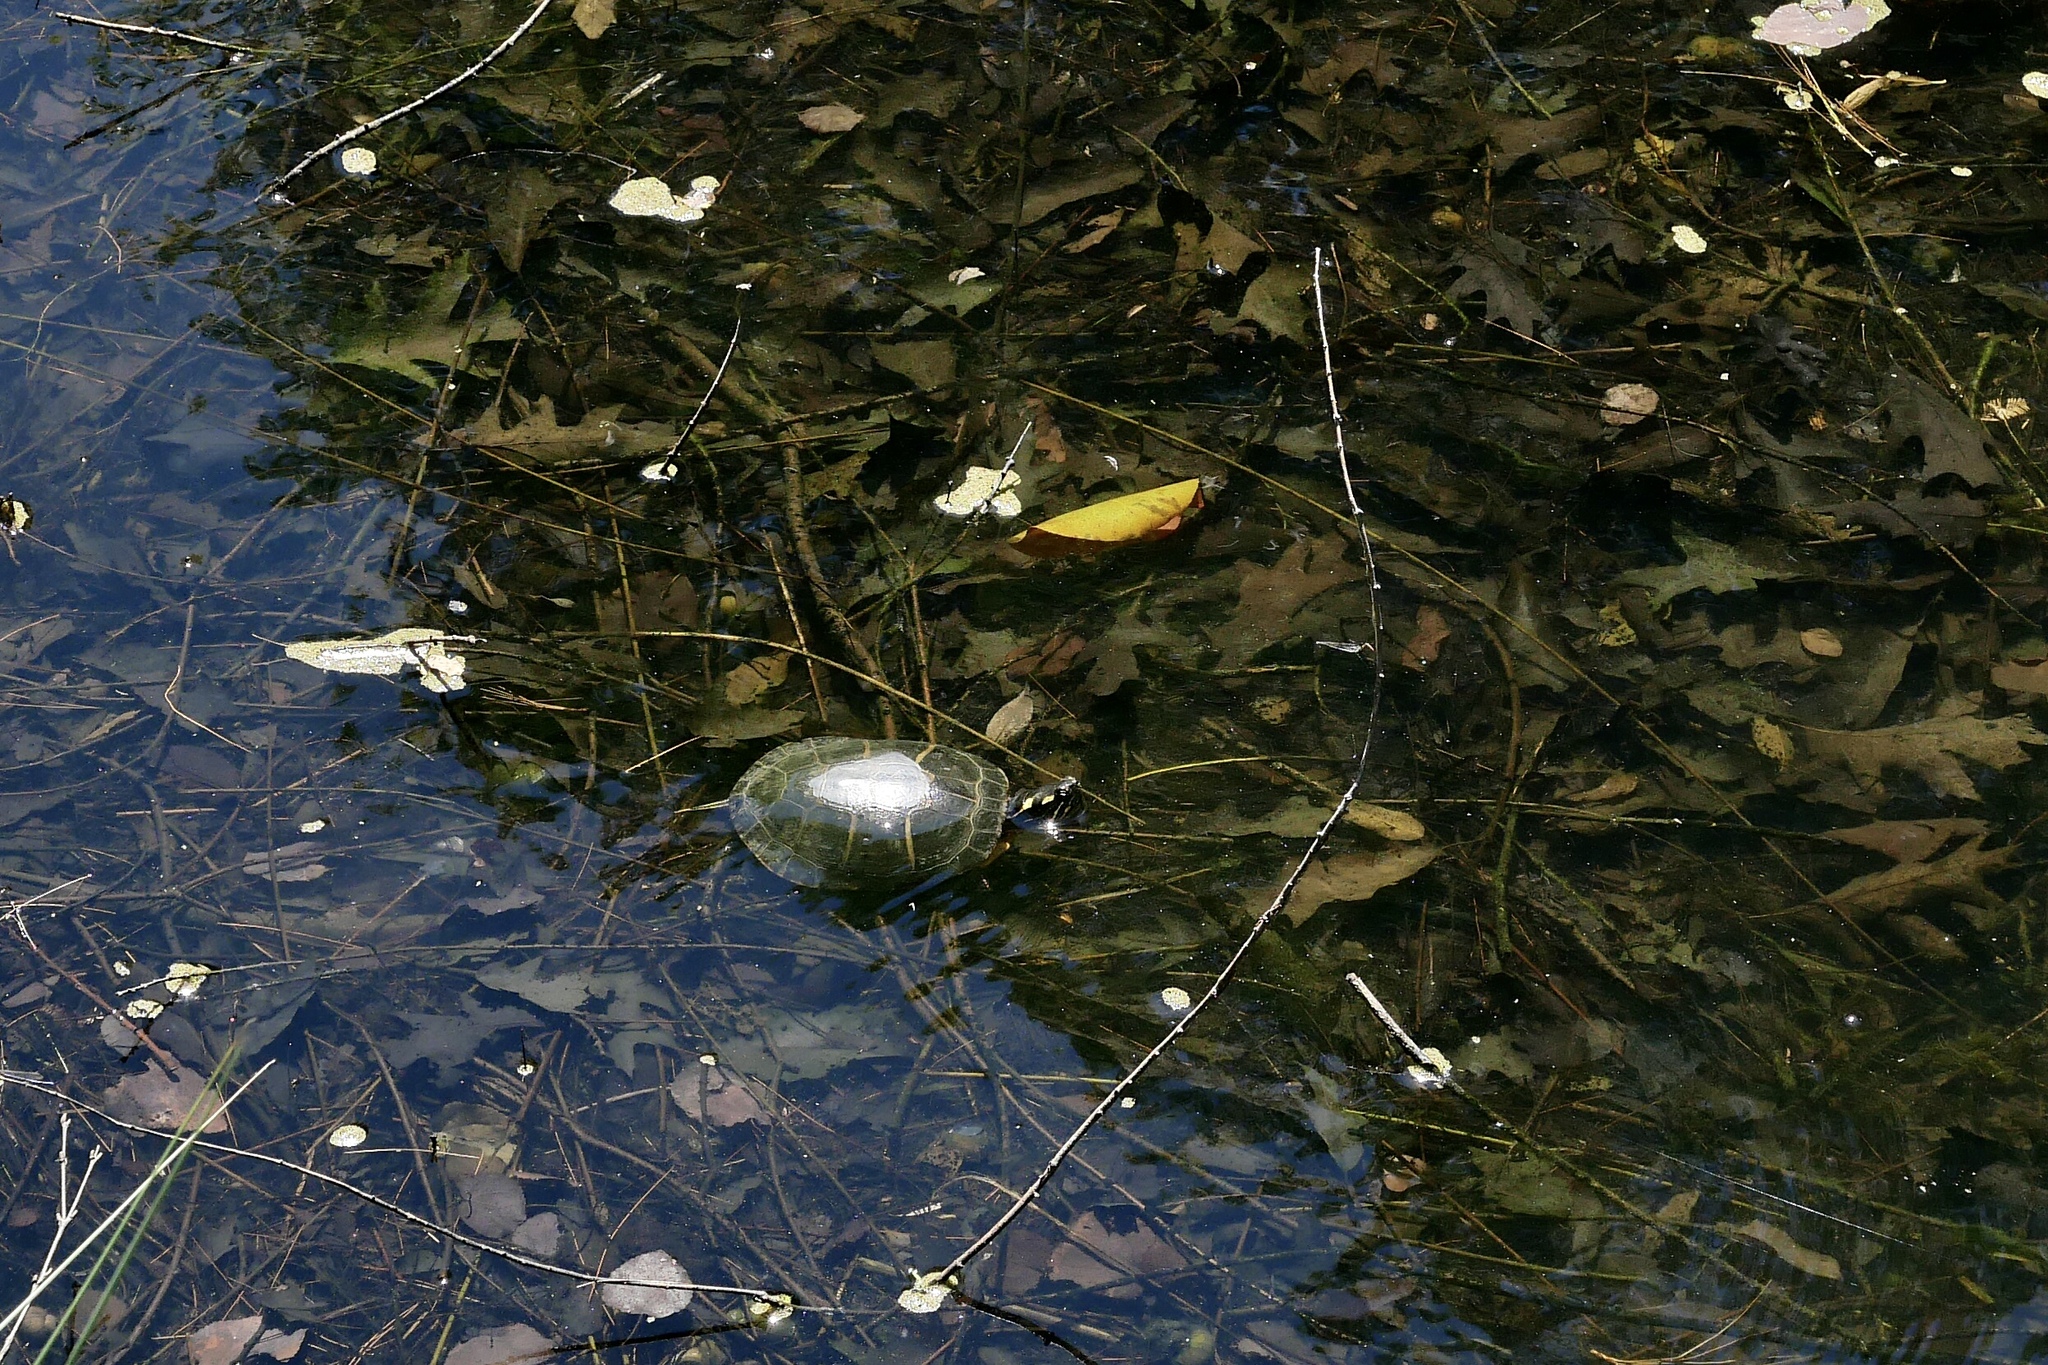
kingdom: Animalia
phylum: Chordata
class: Testudines
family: Emydidae
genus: Chrysemys
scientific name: Chrysemys picta
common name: Painted turtle
